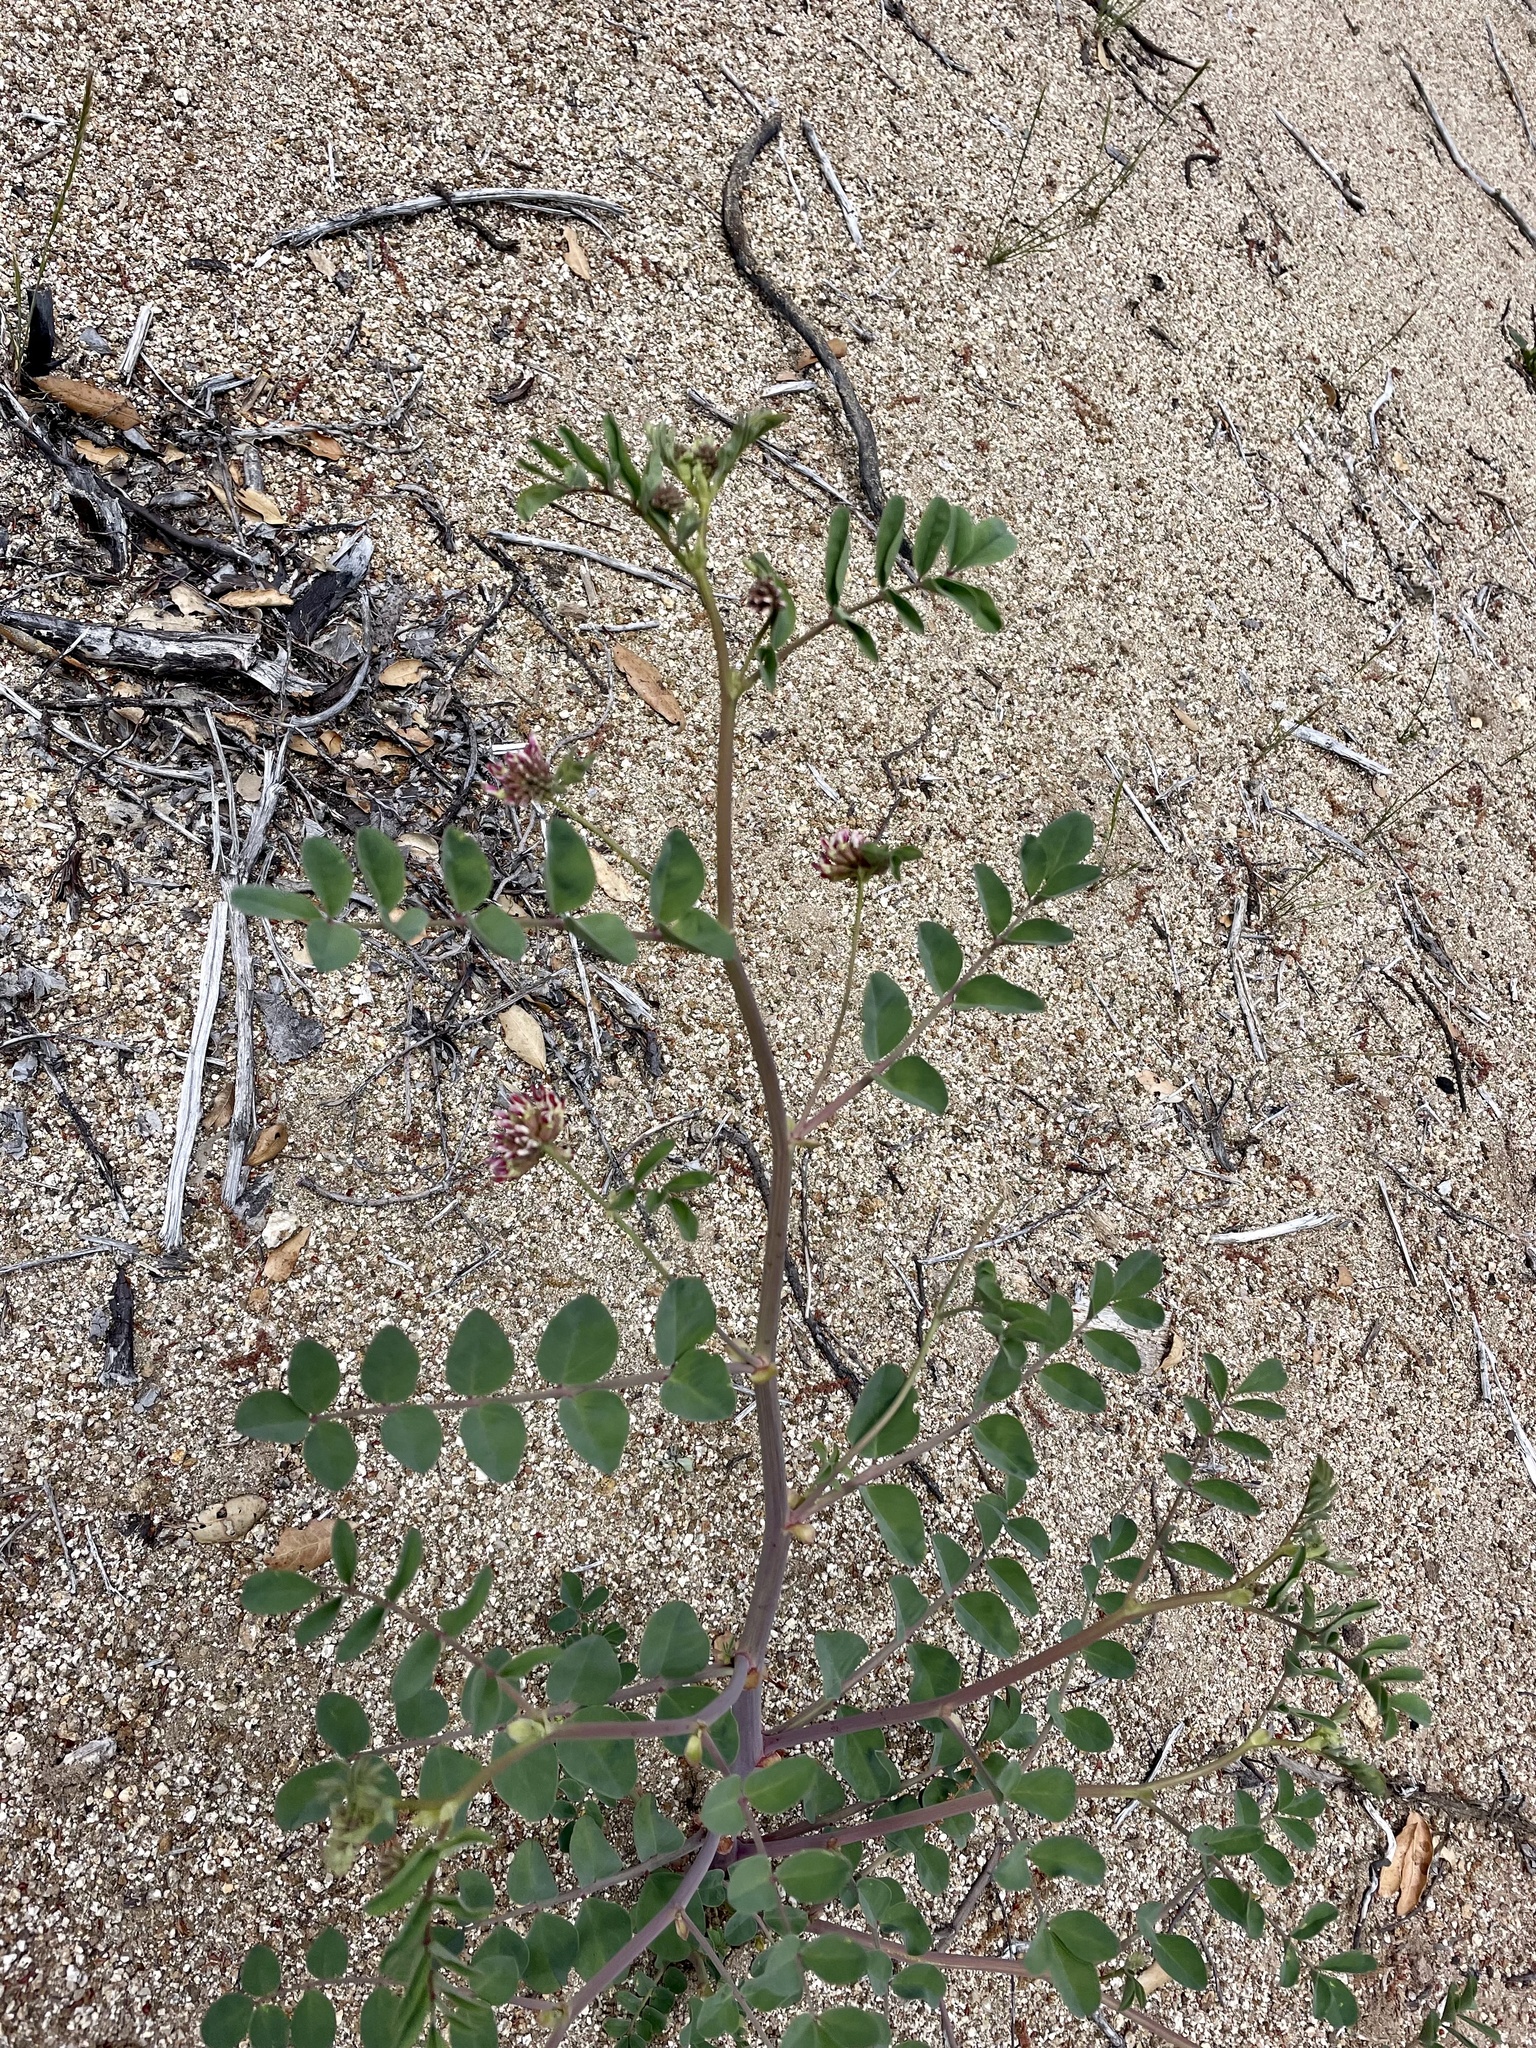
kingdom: Plantae
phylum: Tracheophyta
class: Magnoliopsida
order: Fabales
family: Fabaceae
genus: Hosackia
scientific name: Hosackia crassifolia
